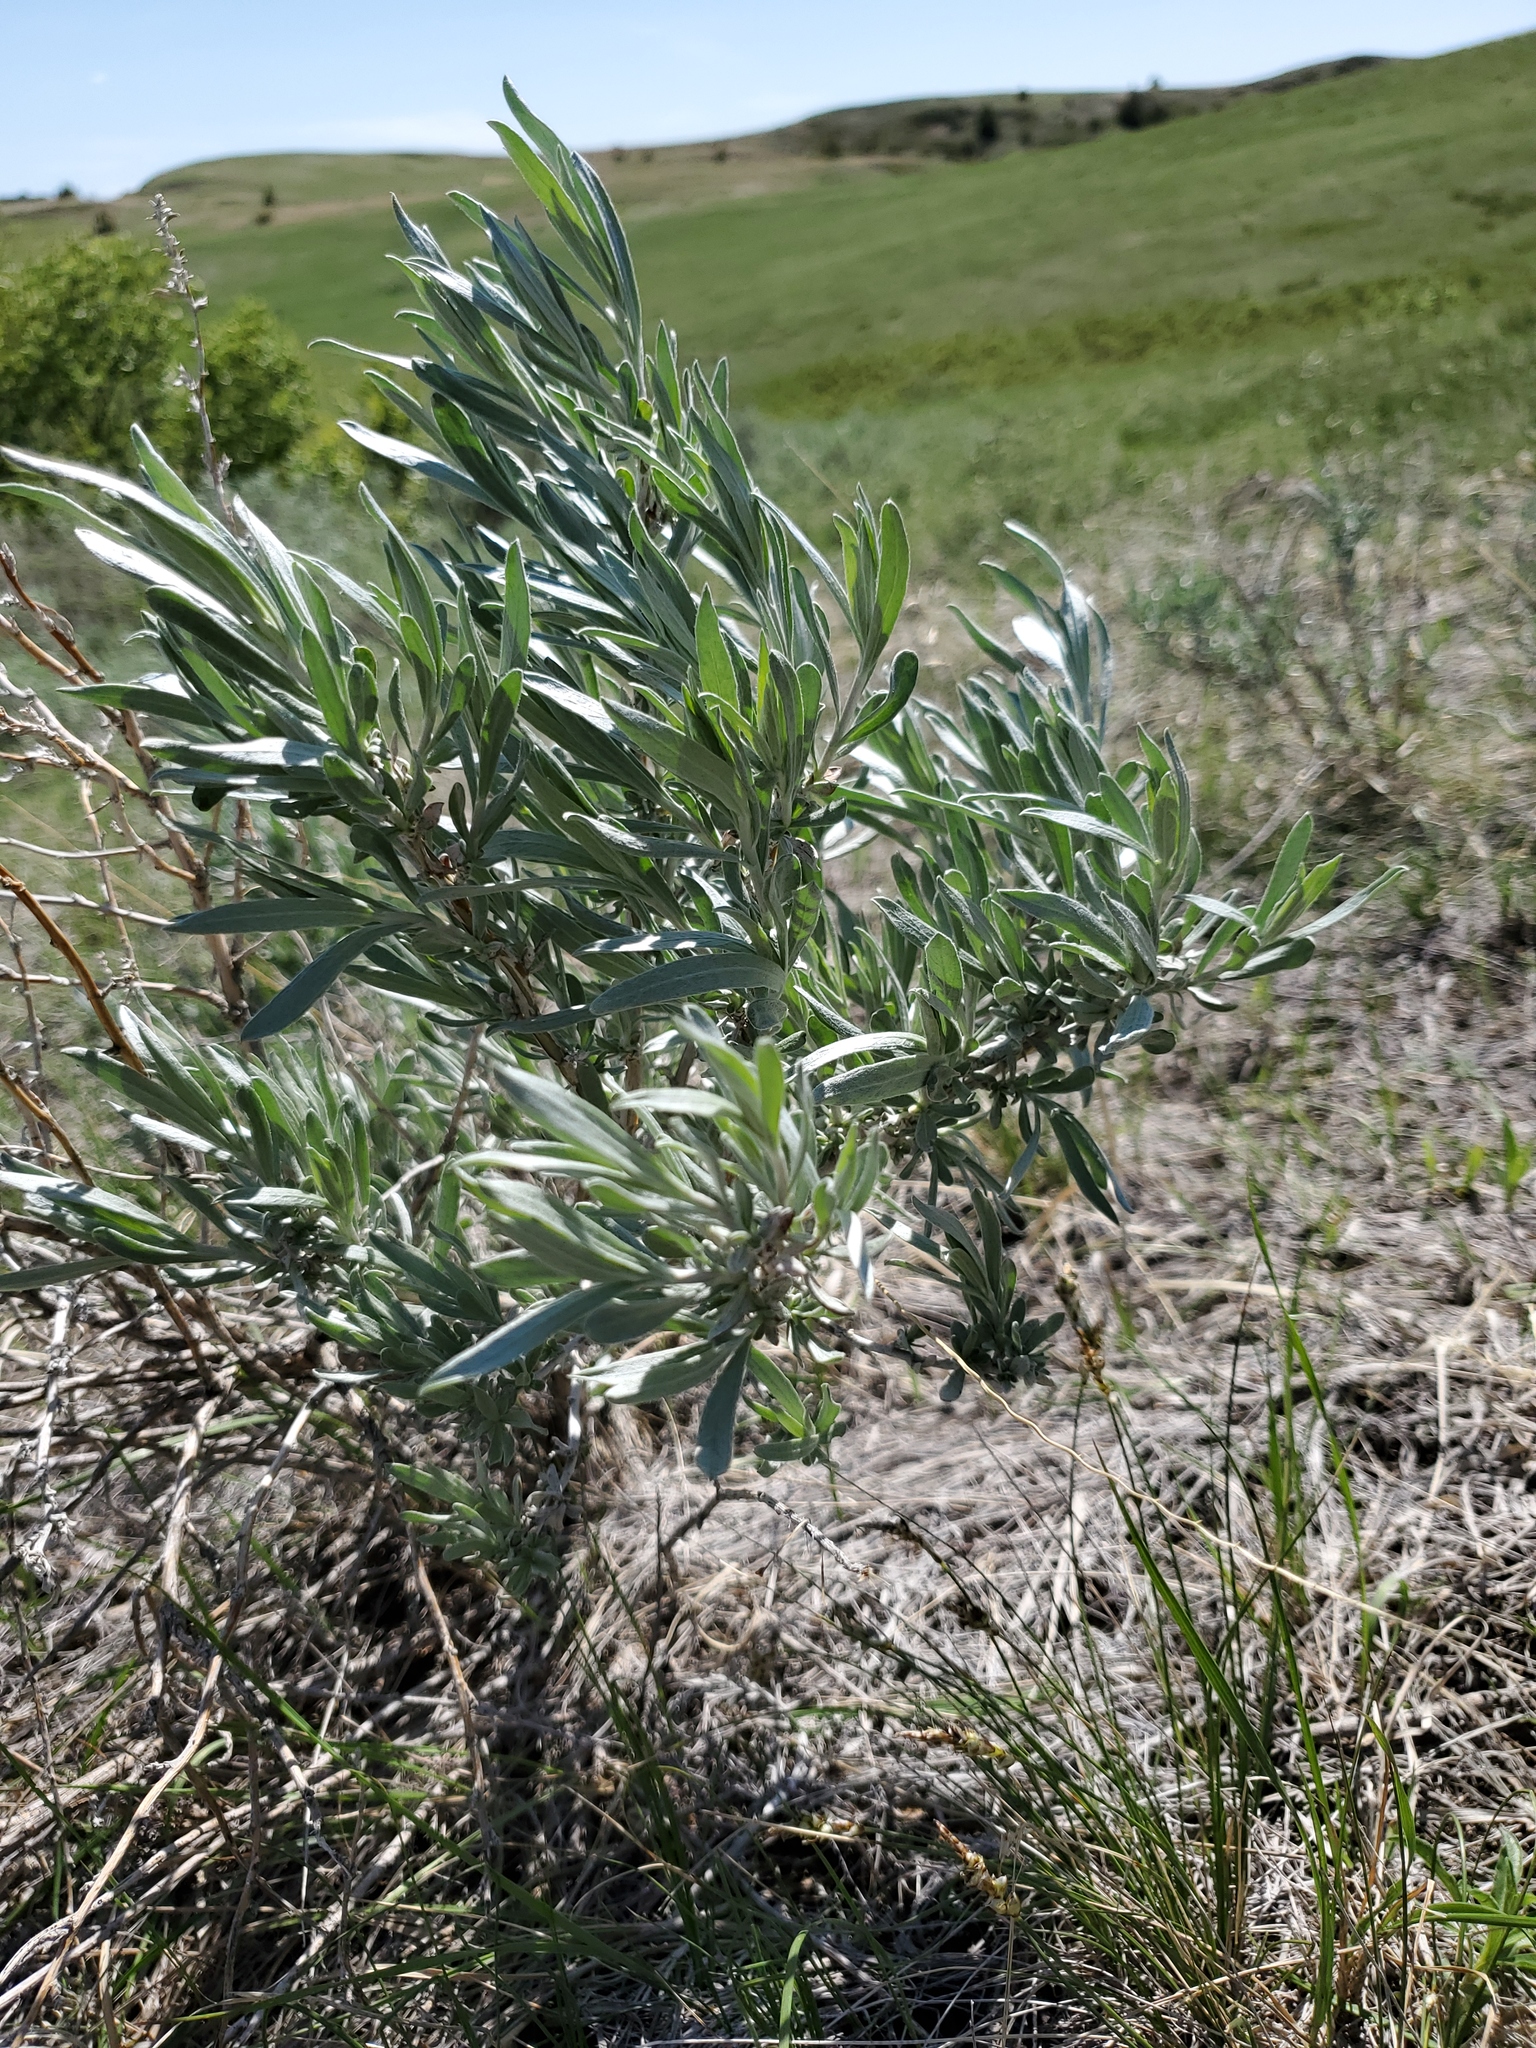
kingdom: Plantae
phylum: Tracheophyta
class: Magnoliopsida
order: Asterales
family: Asteraceae
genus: Artemisia
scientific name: Artemisia cana
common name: Silver sagebrush
